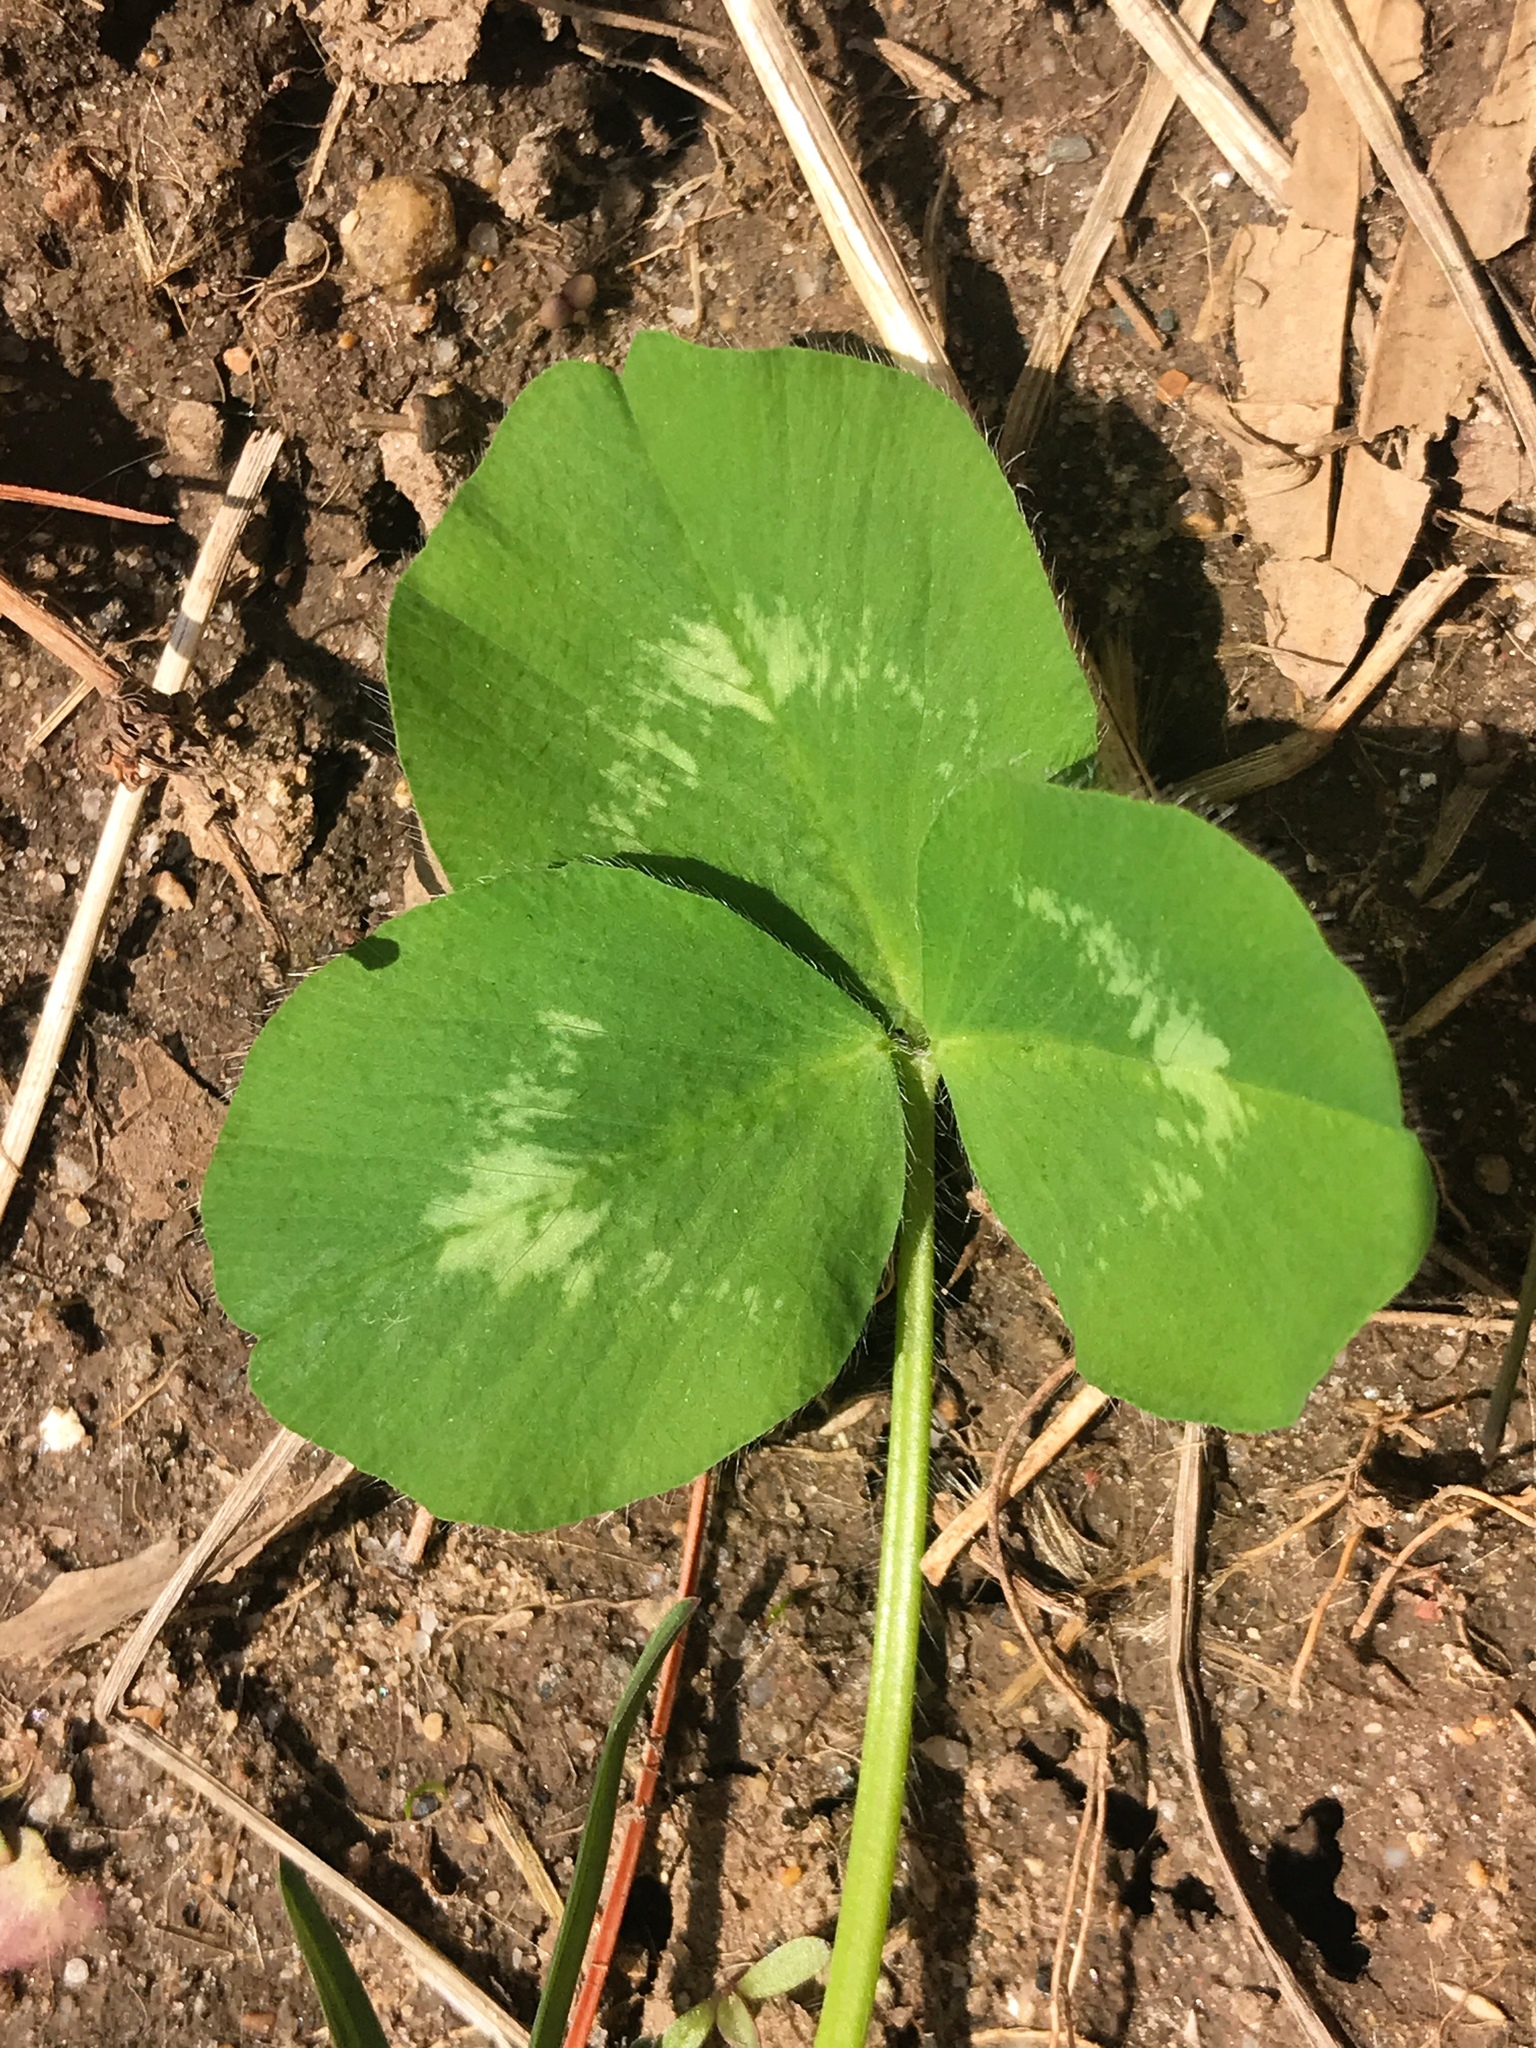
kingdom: Plantae
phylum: Tracheophyta
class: Magnoliopsida
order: Fabales
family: Fabaceae
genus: Trifolium
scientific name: Trifolium pratense
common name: Red clover
